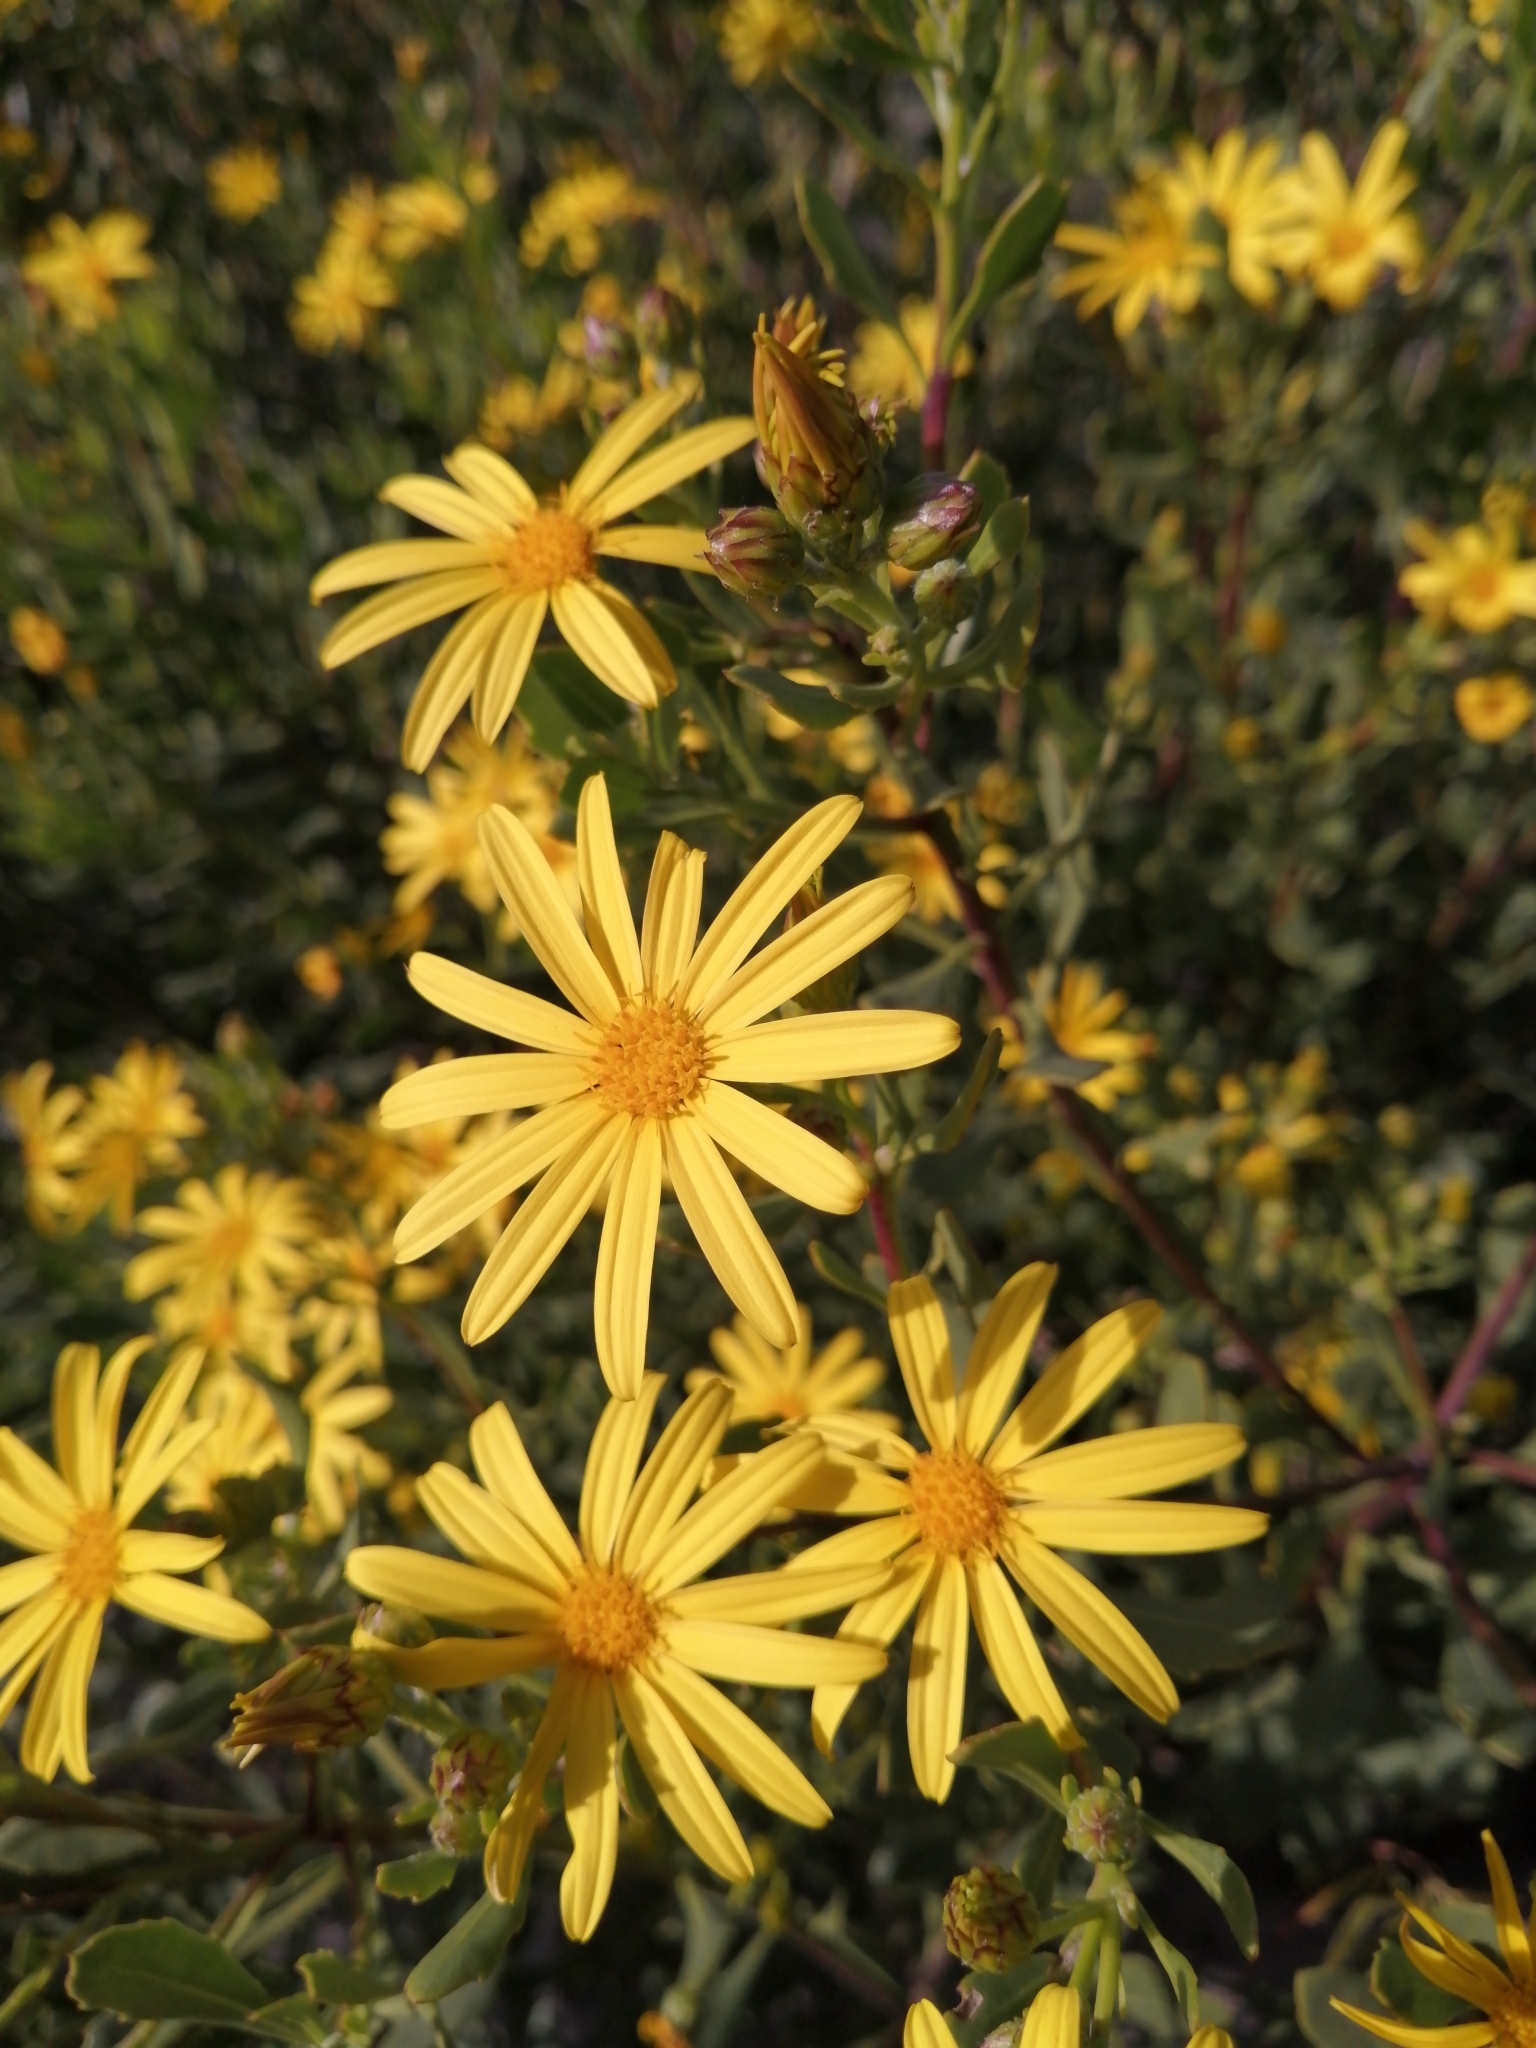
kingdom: Plantae
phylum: Tracheophyta
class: Magnoliopsida
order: Asterales
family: Asteraceae
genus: Osteospermum
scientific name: Osteospermum moniliferum
